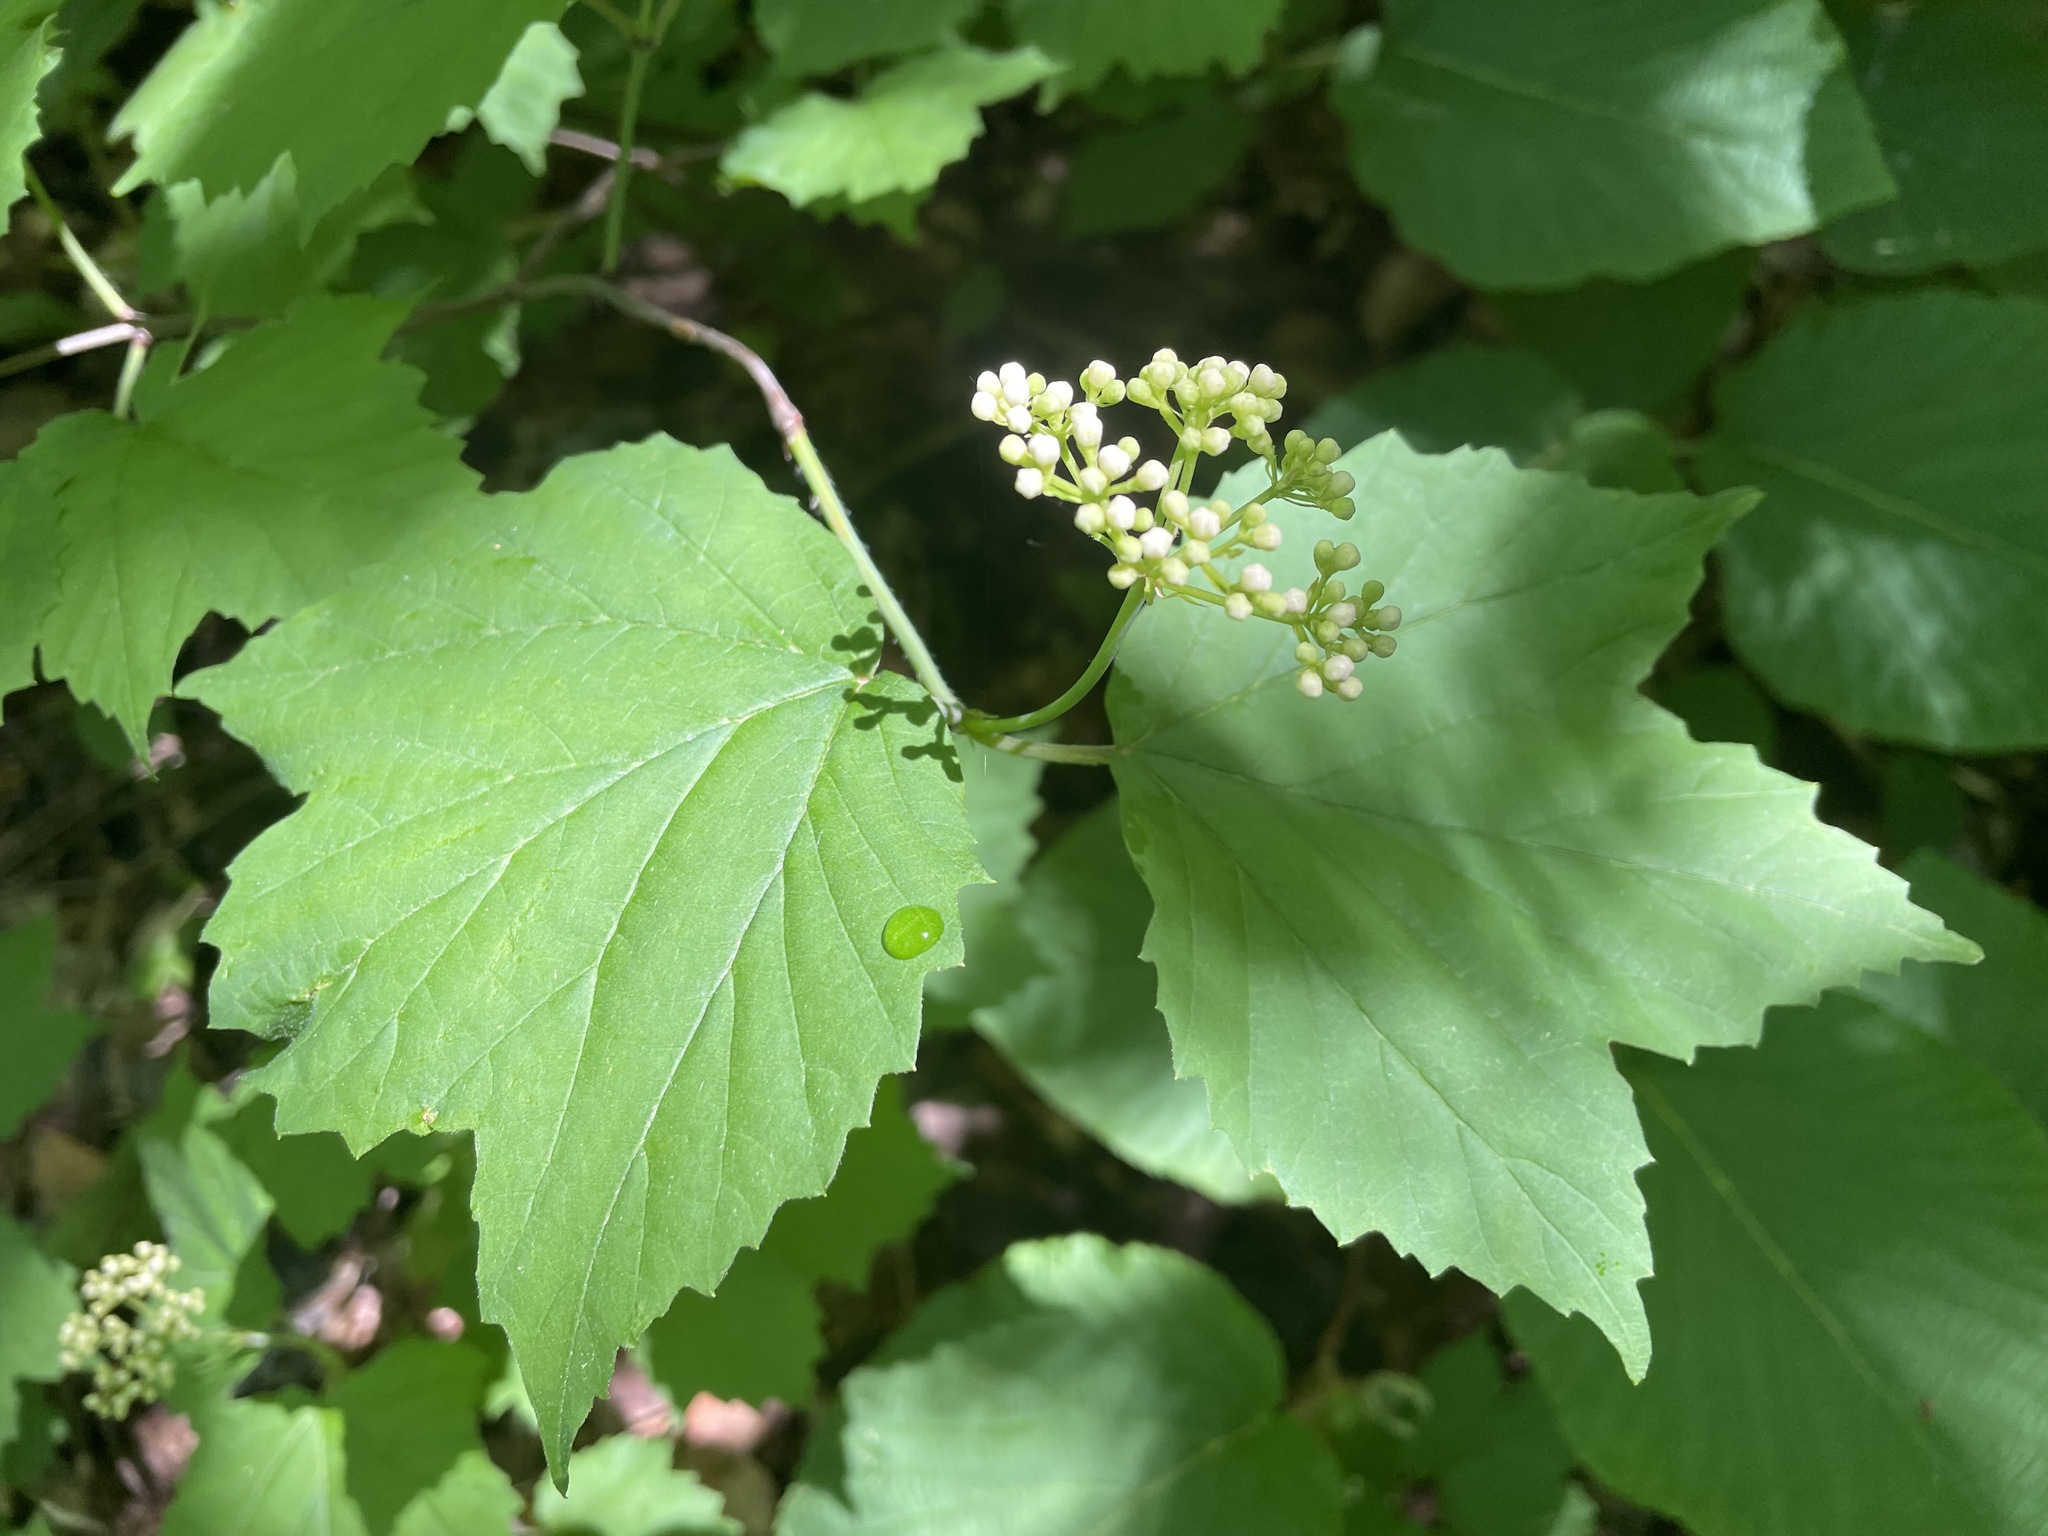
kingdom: Plantae
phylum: Tracheophyta
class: Magnoliopsida
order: Dipsacales
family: Viburnaceae
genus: Viburnum
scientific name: Viburnum acerifolium
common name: Dockmackie
